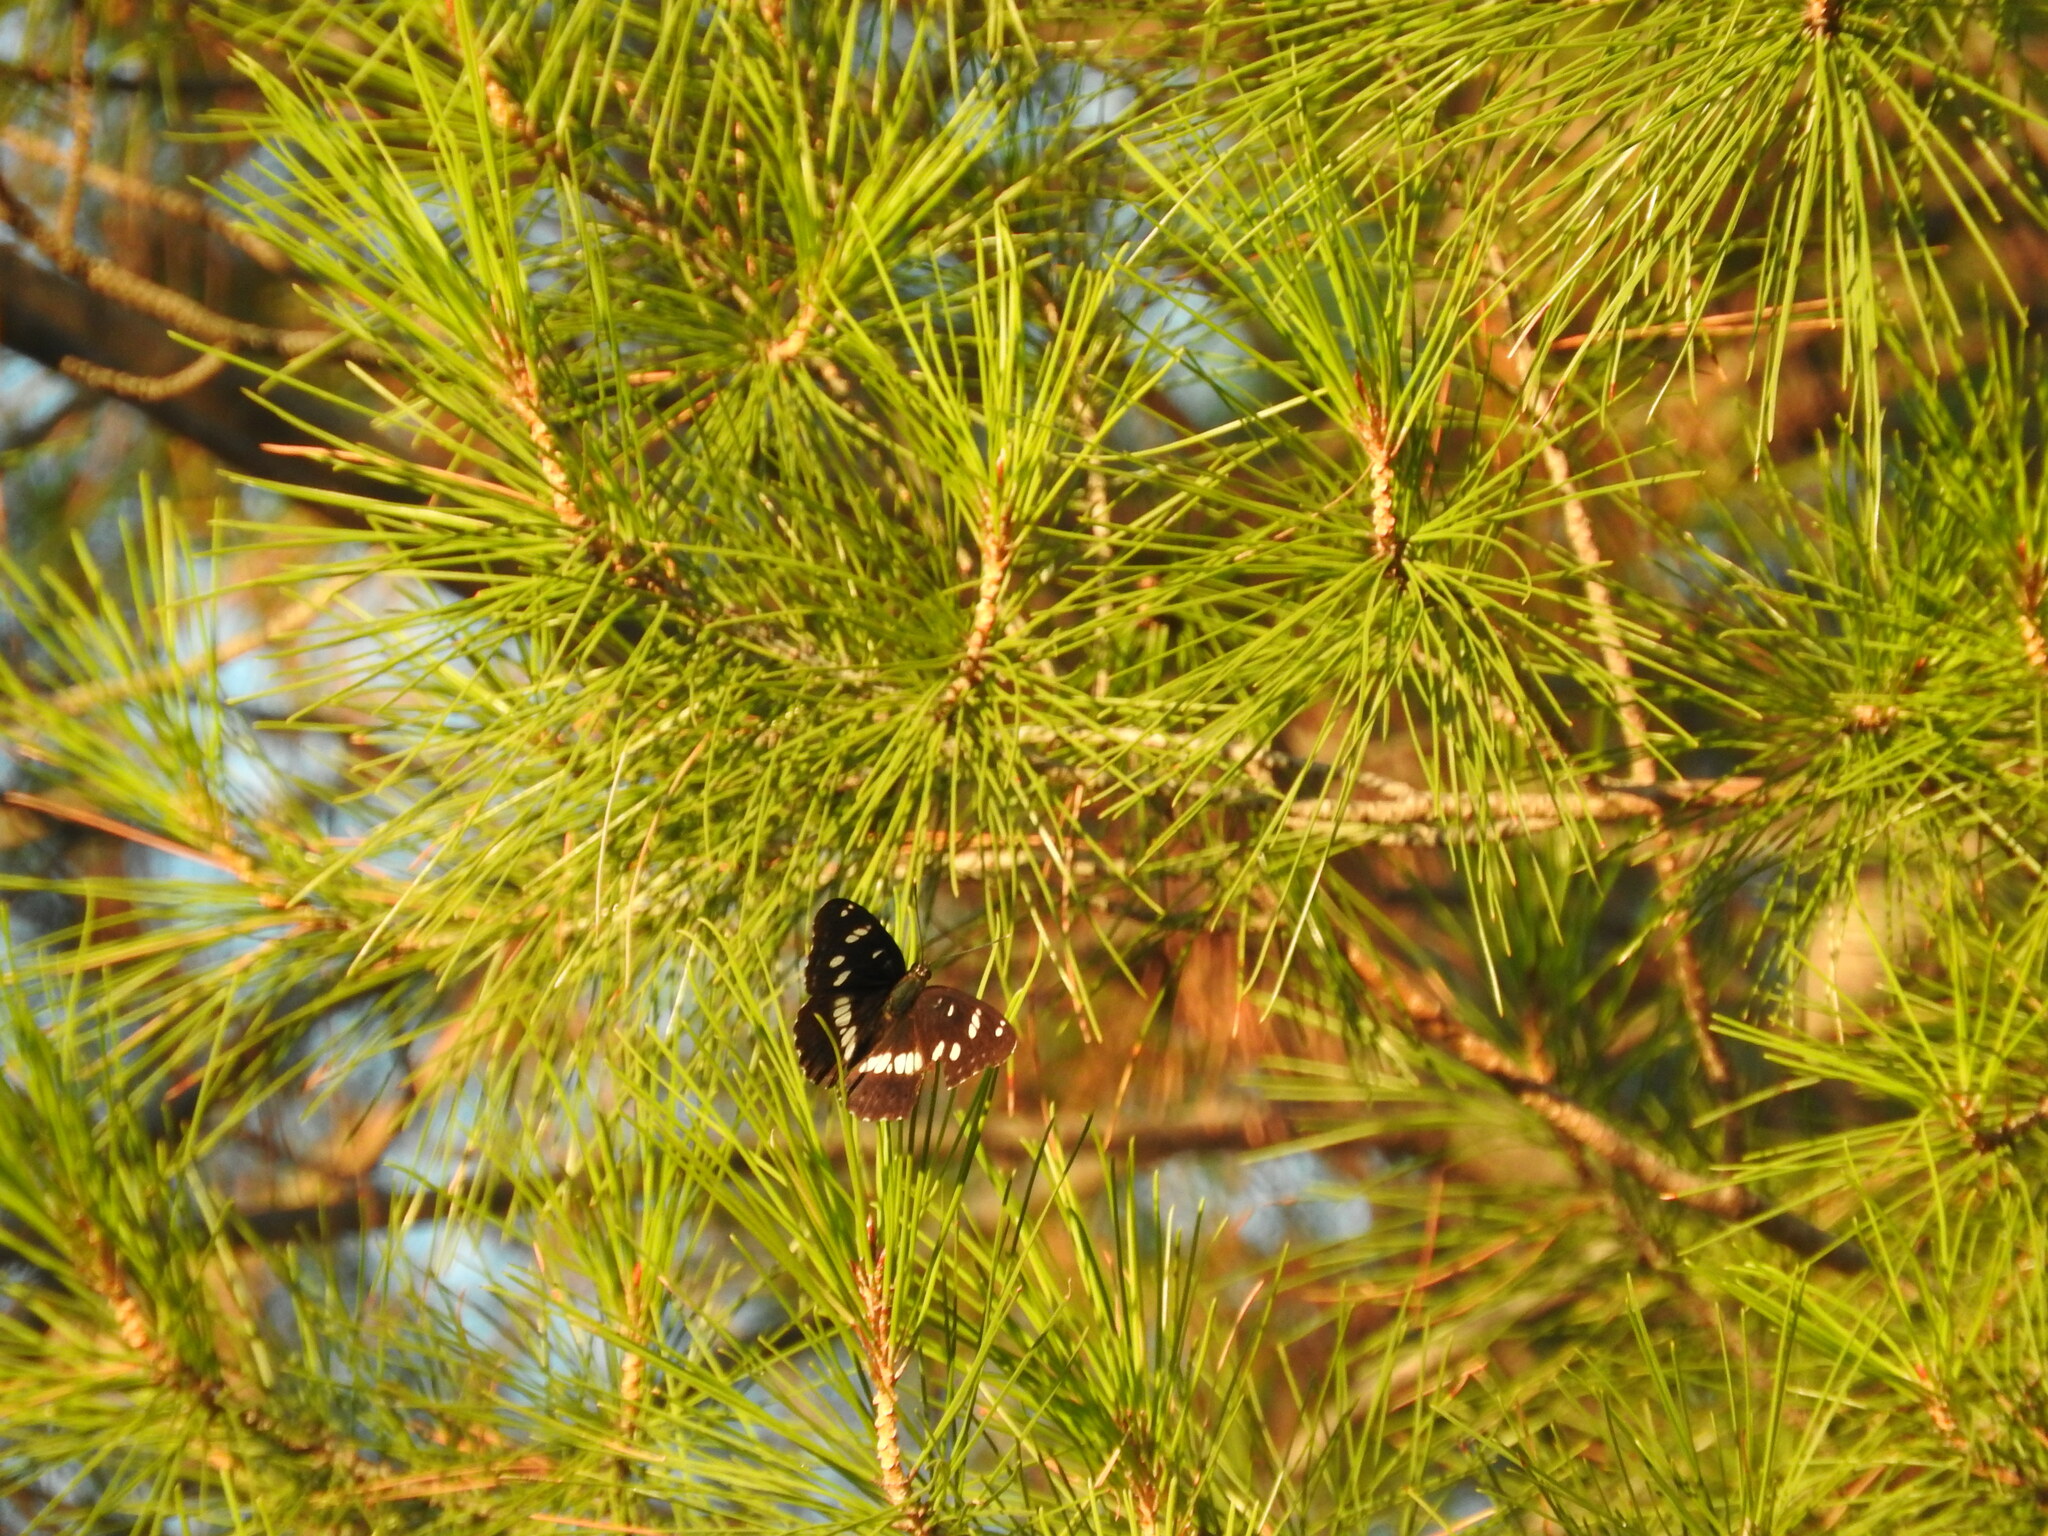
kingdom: Animalia
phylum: Arthropoda
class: Insecta
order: Lepidoptera
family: Nymphalidae
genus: Limenitis
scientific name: Limenitis reducta
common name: Southern white admiral
